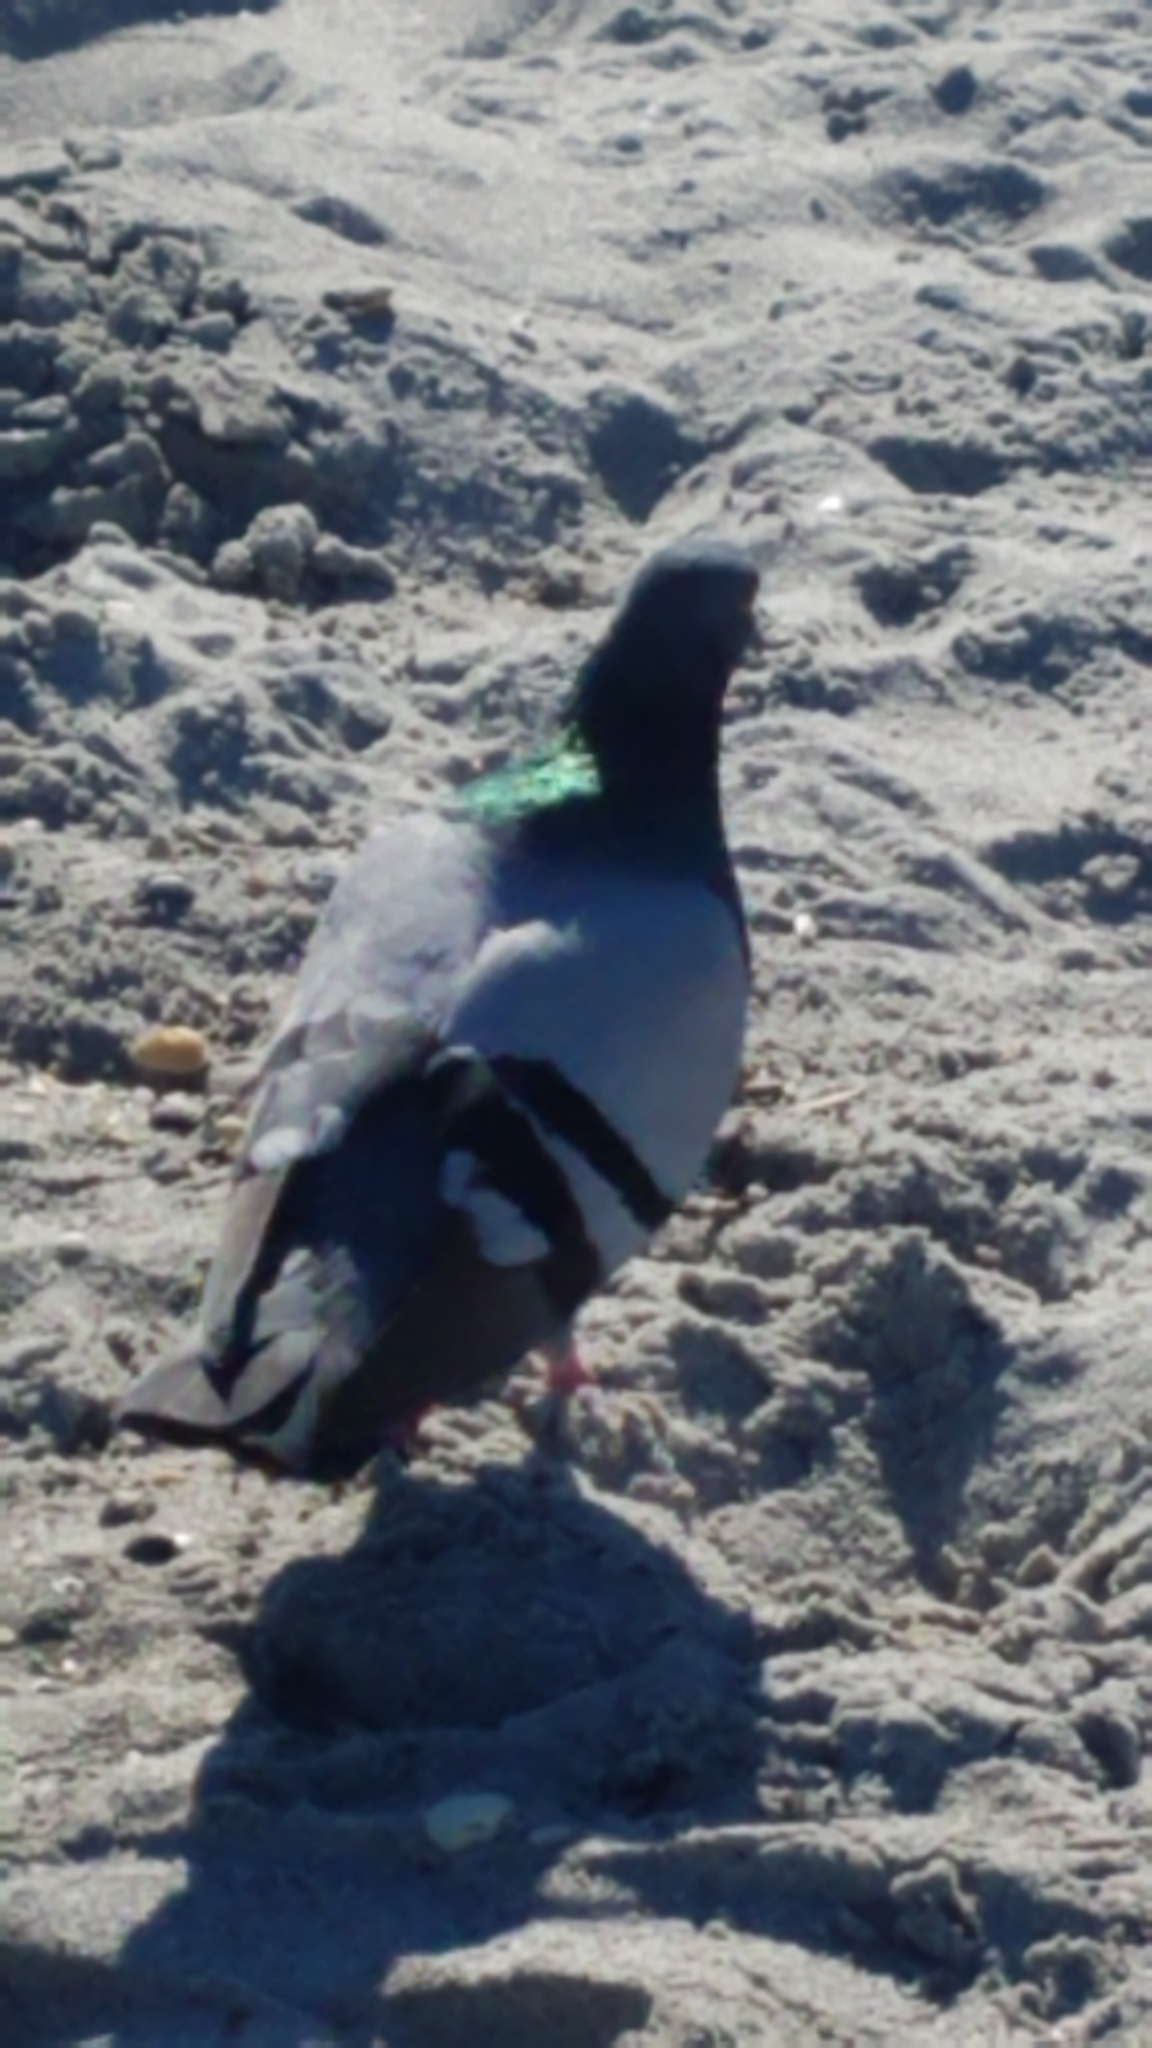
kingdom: Animalia
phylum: Chordata
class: Aves
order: Columbiformes
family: Columbidae
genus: Columba
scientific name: Columba livia
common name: Rock pigeon
